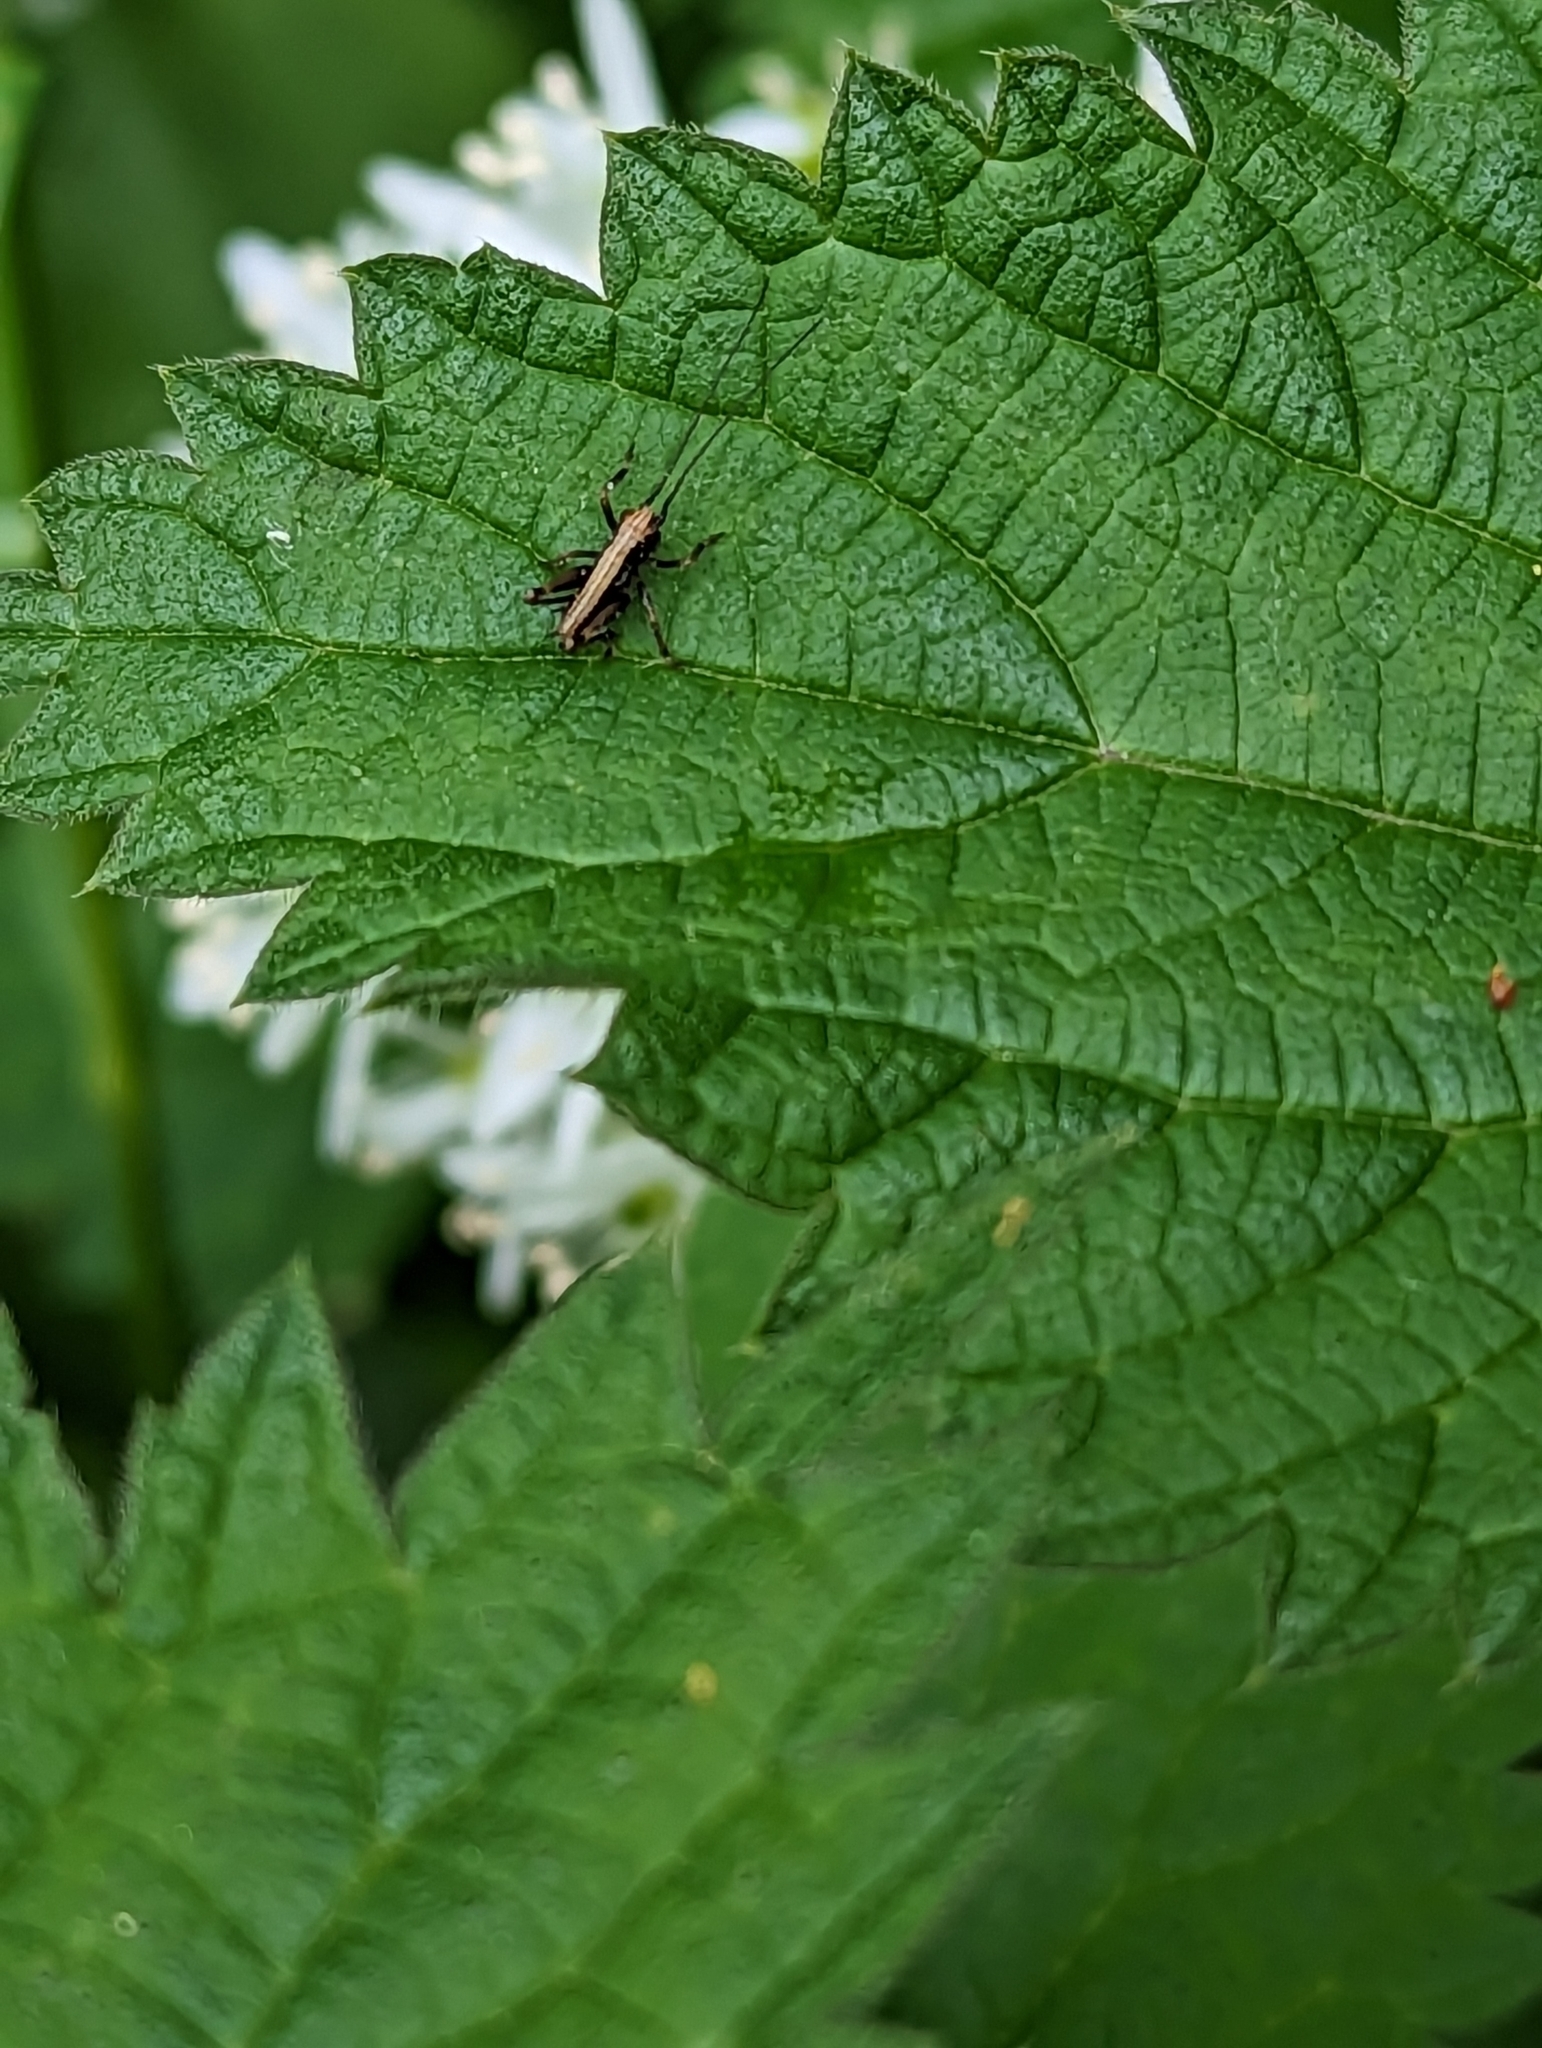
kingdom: Animalia
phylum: Arthropoda
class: Insecta
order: Orthoptera
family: Tettigoniidae
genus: Pholidoptera
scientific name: Pholidoptera griseoaptera
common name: Dark bush-cricket
